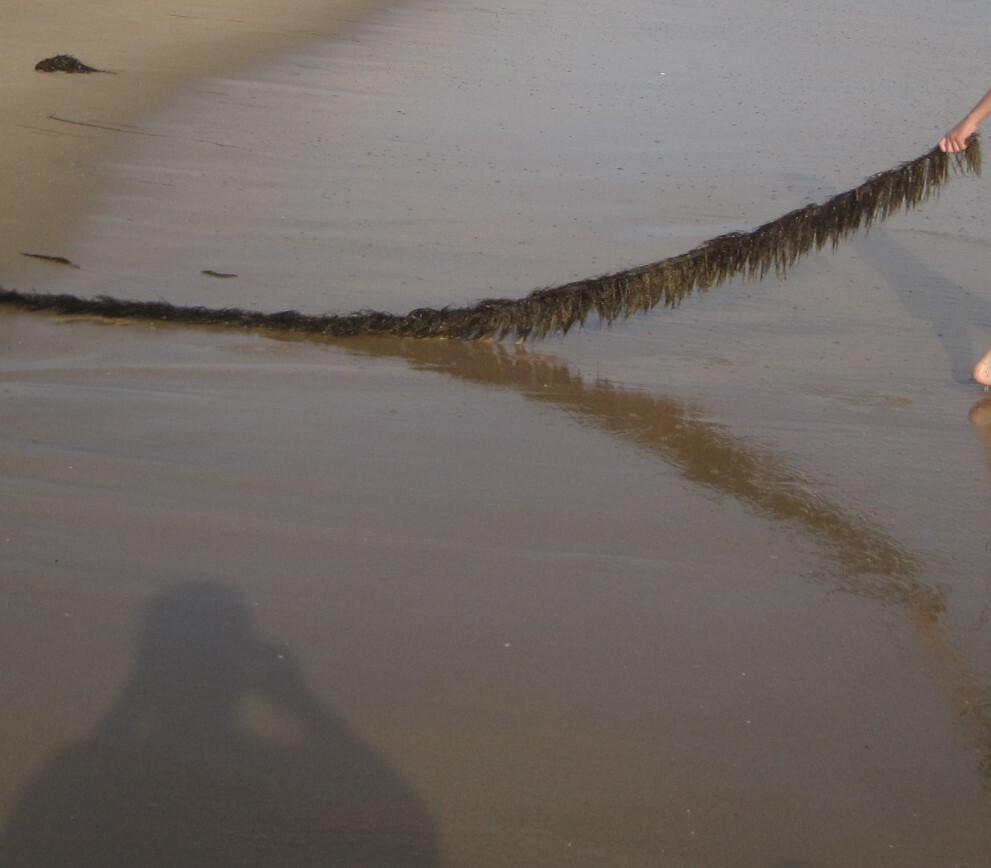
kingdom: Chromista
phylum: Ochrophyta
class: Phaeophyceae
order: Laminariales
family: Lessoniaceae
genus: Egregia
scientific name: Egregia menziesii
